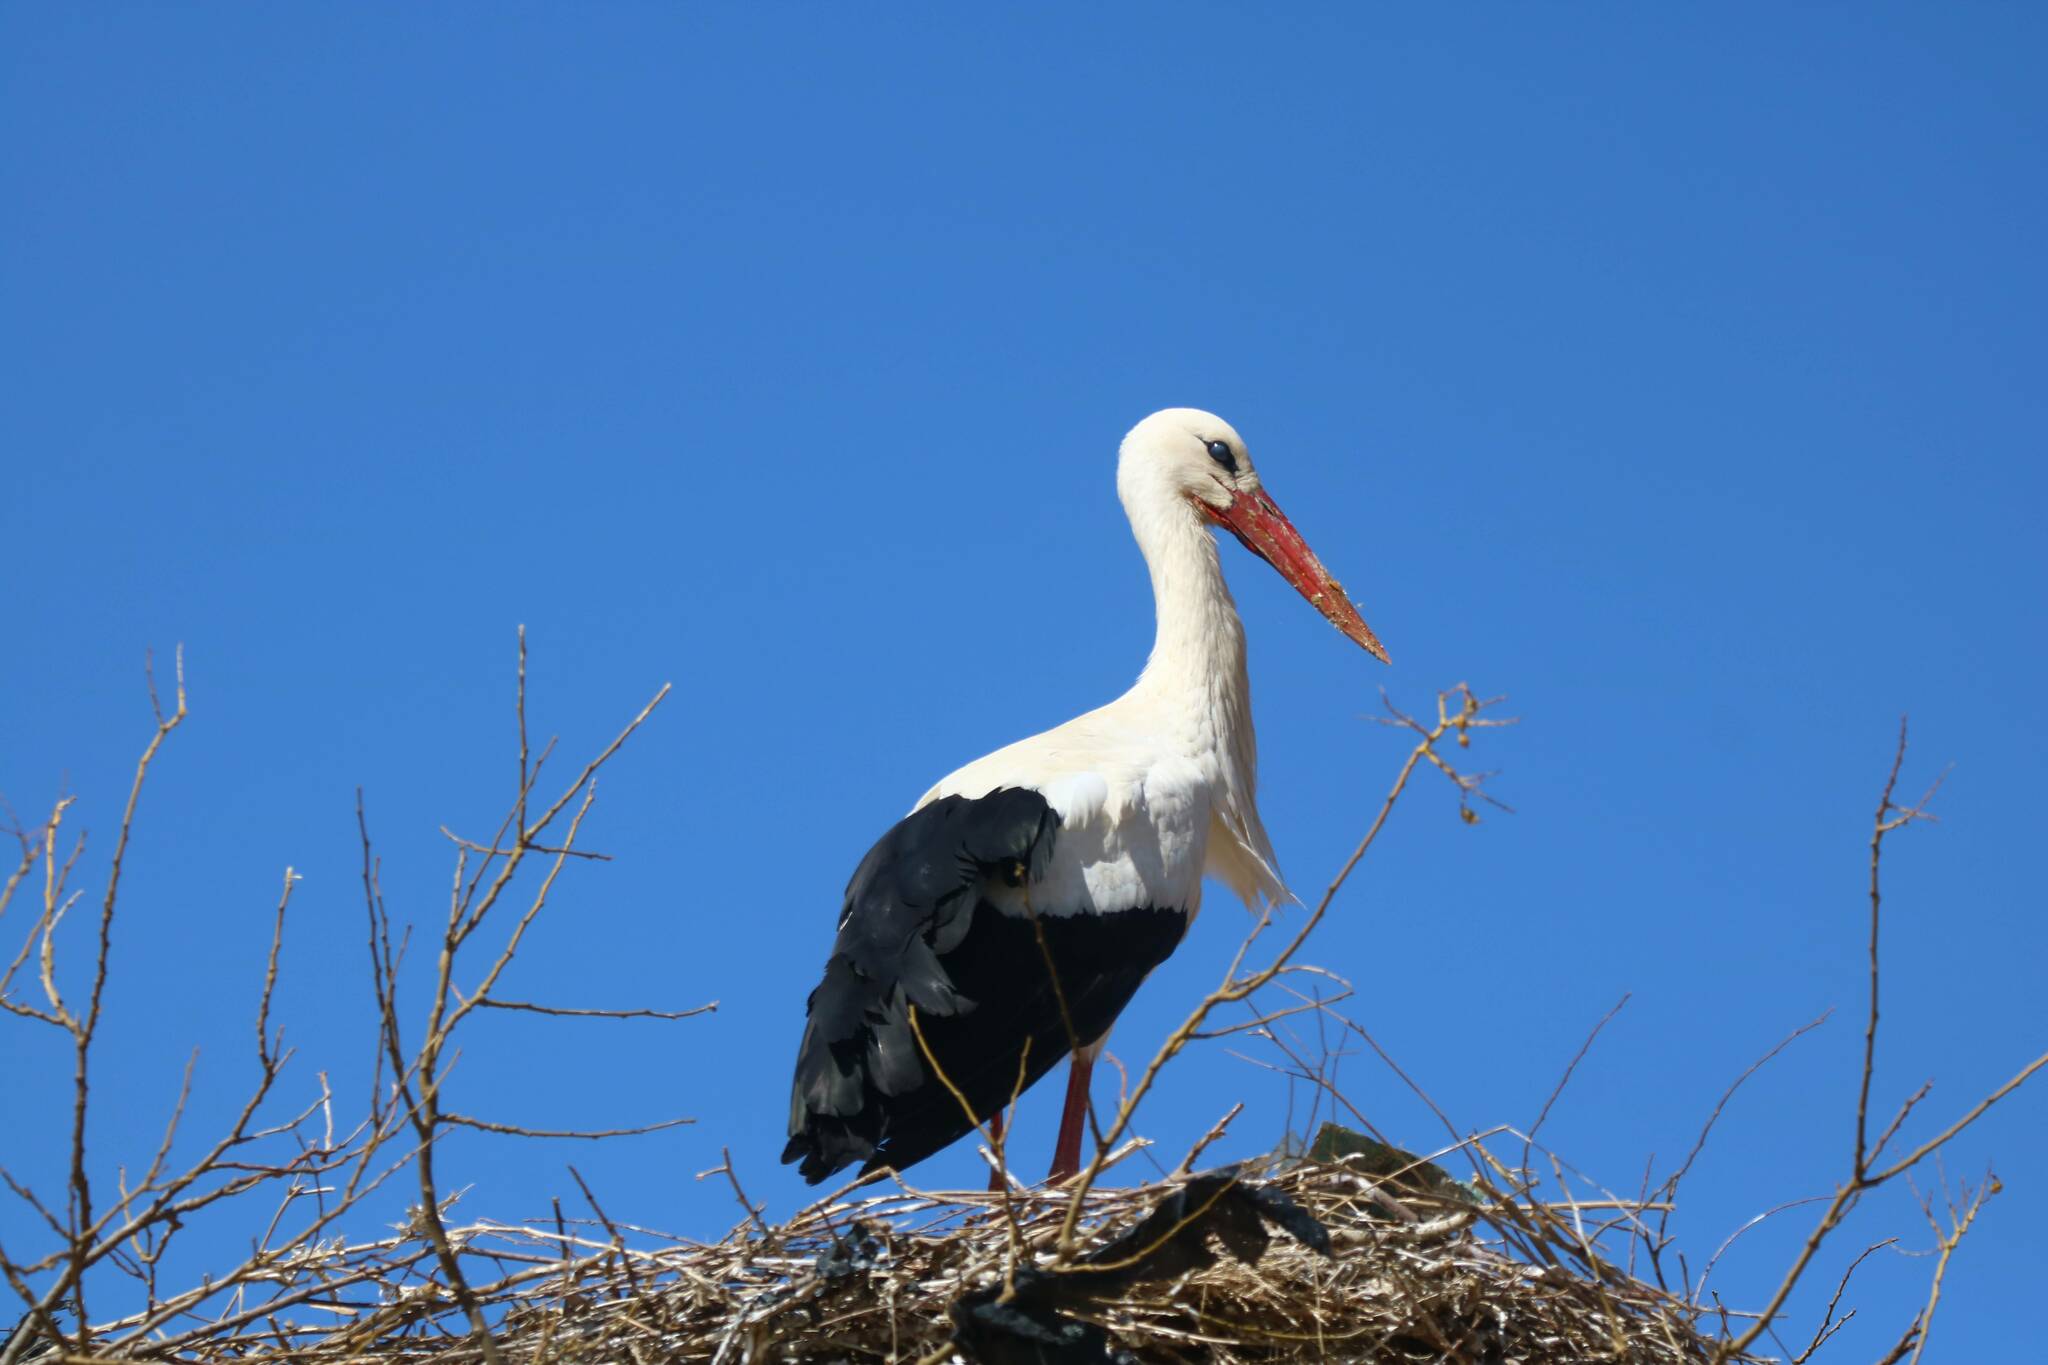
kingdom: Animalia
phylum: Chordata
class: Aves
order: Ciconiiformes
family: Ciconiidae
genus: Ciconia
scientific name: Ciconia ciconia
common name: White stork
